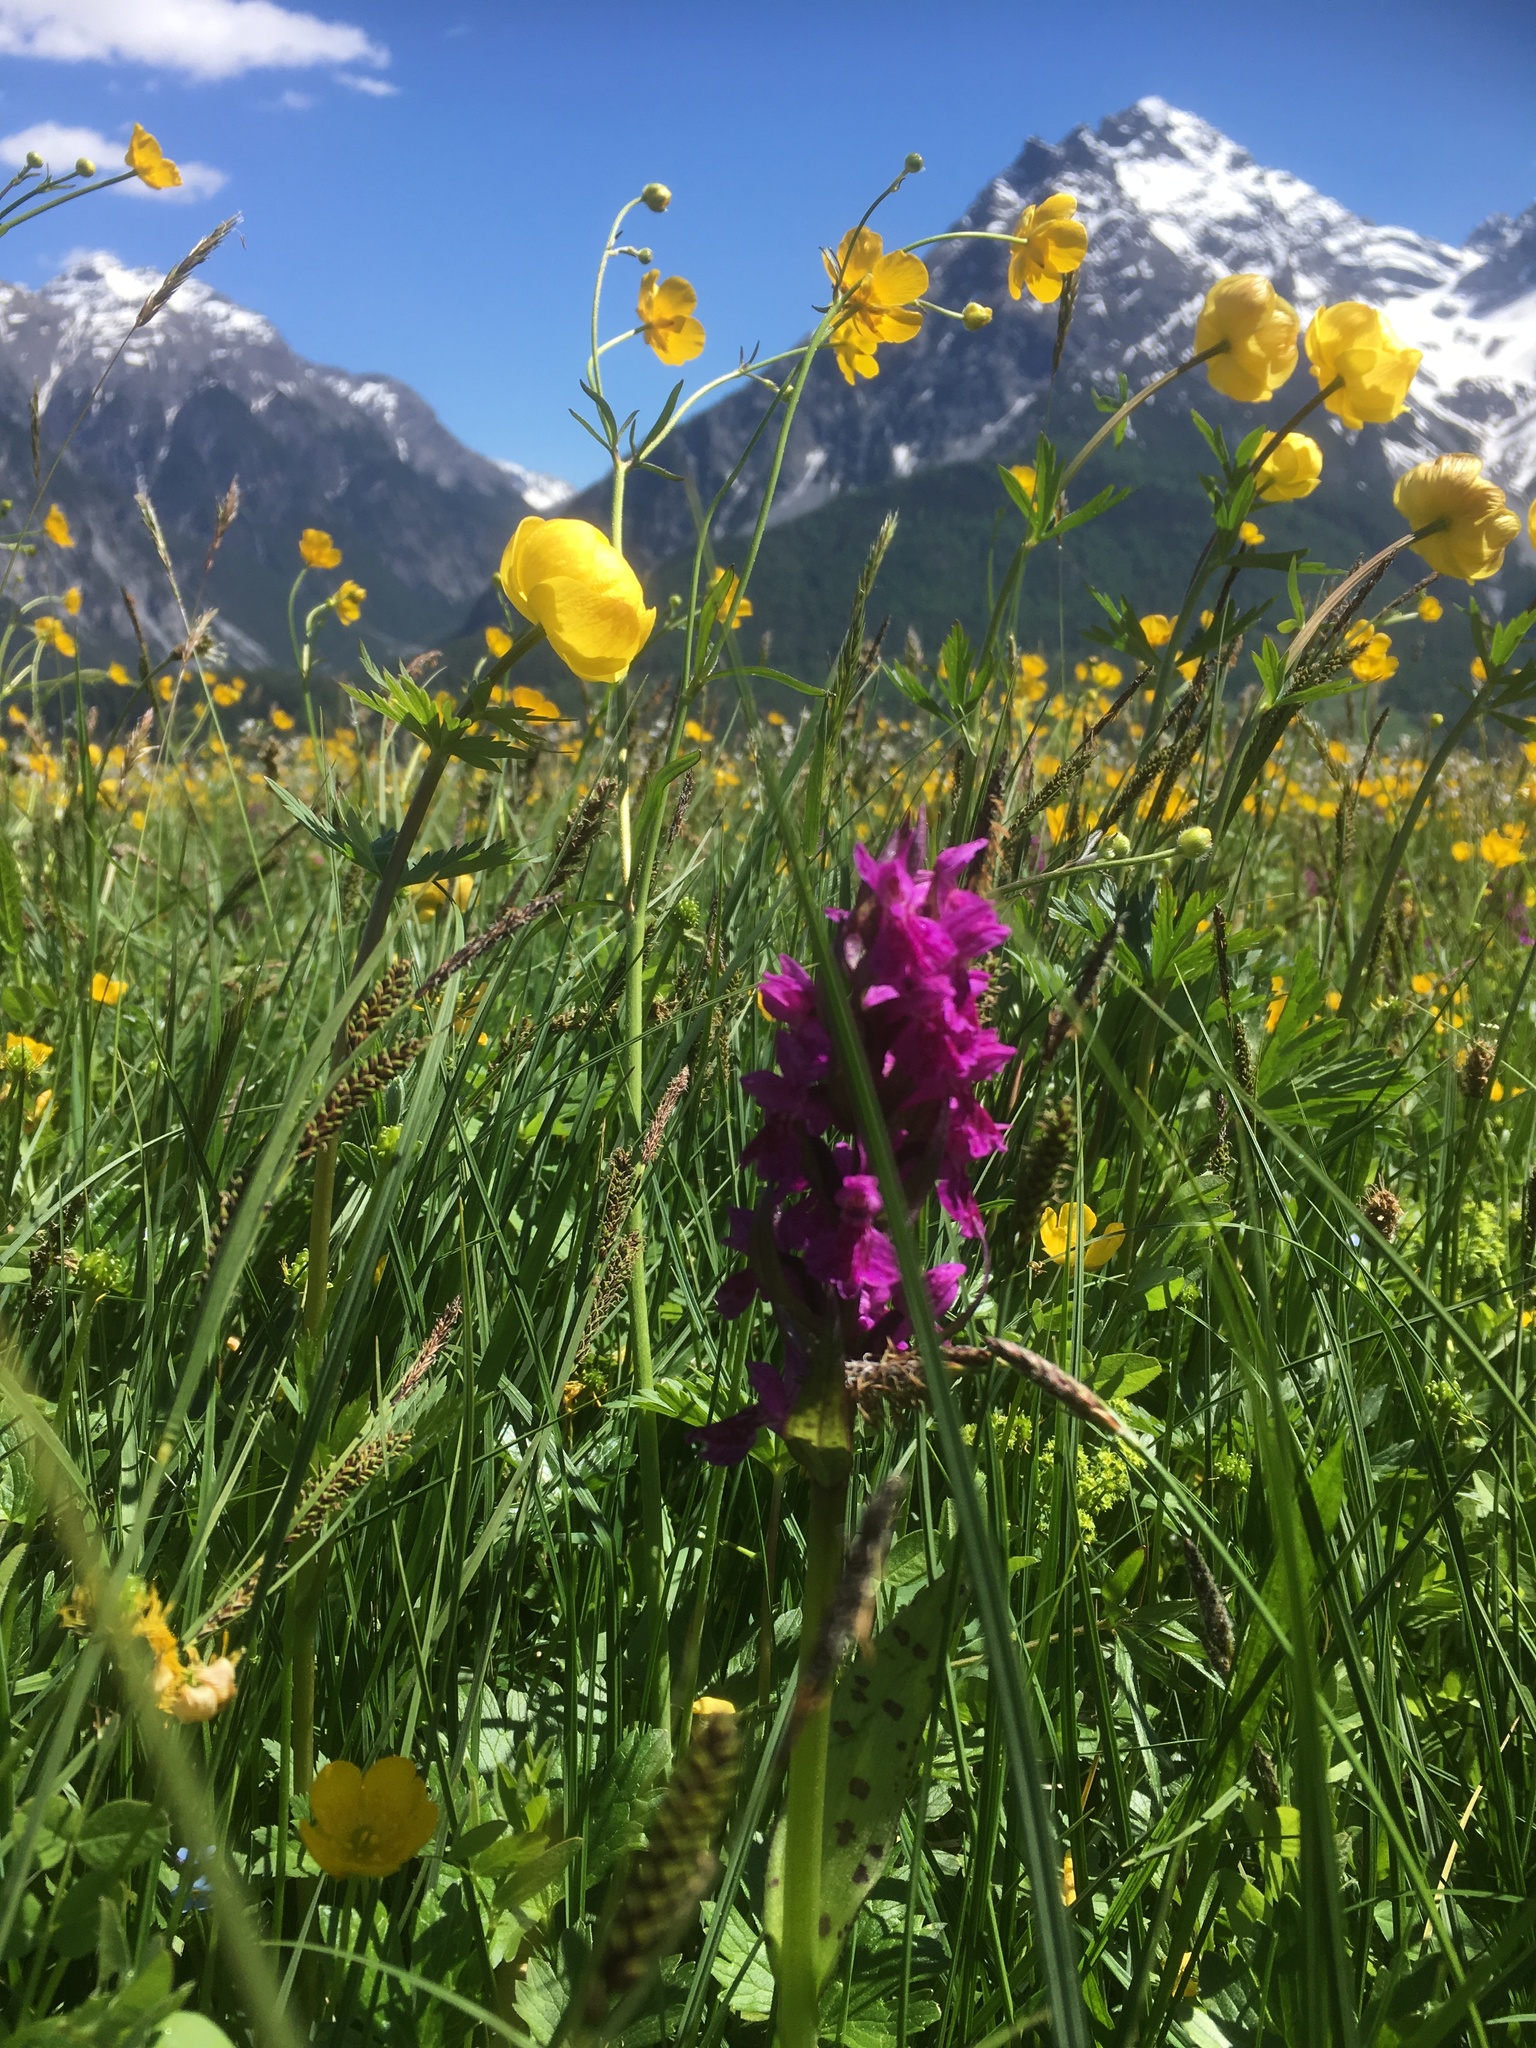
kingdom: Plantae
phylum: Tracheophyta
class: Liliopsida
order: Asparagales
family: Orchidaceae
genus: Dactylorhiza
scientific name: Dactylorhiza majalis
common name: Marsh orchid
